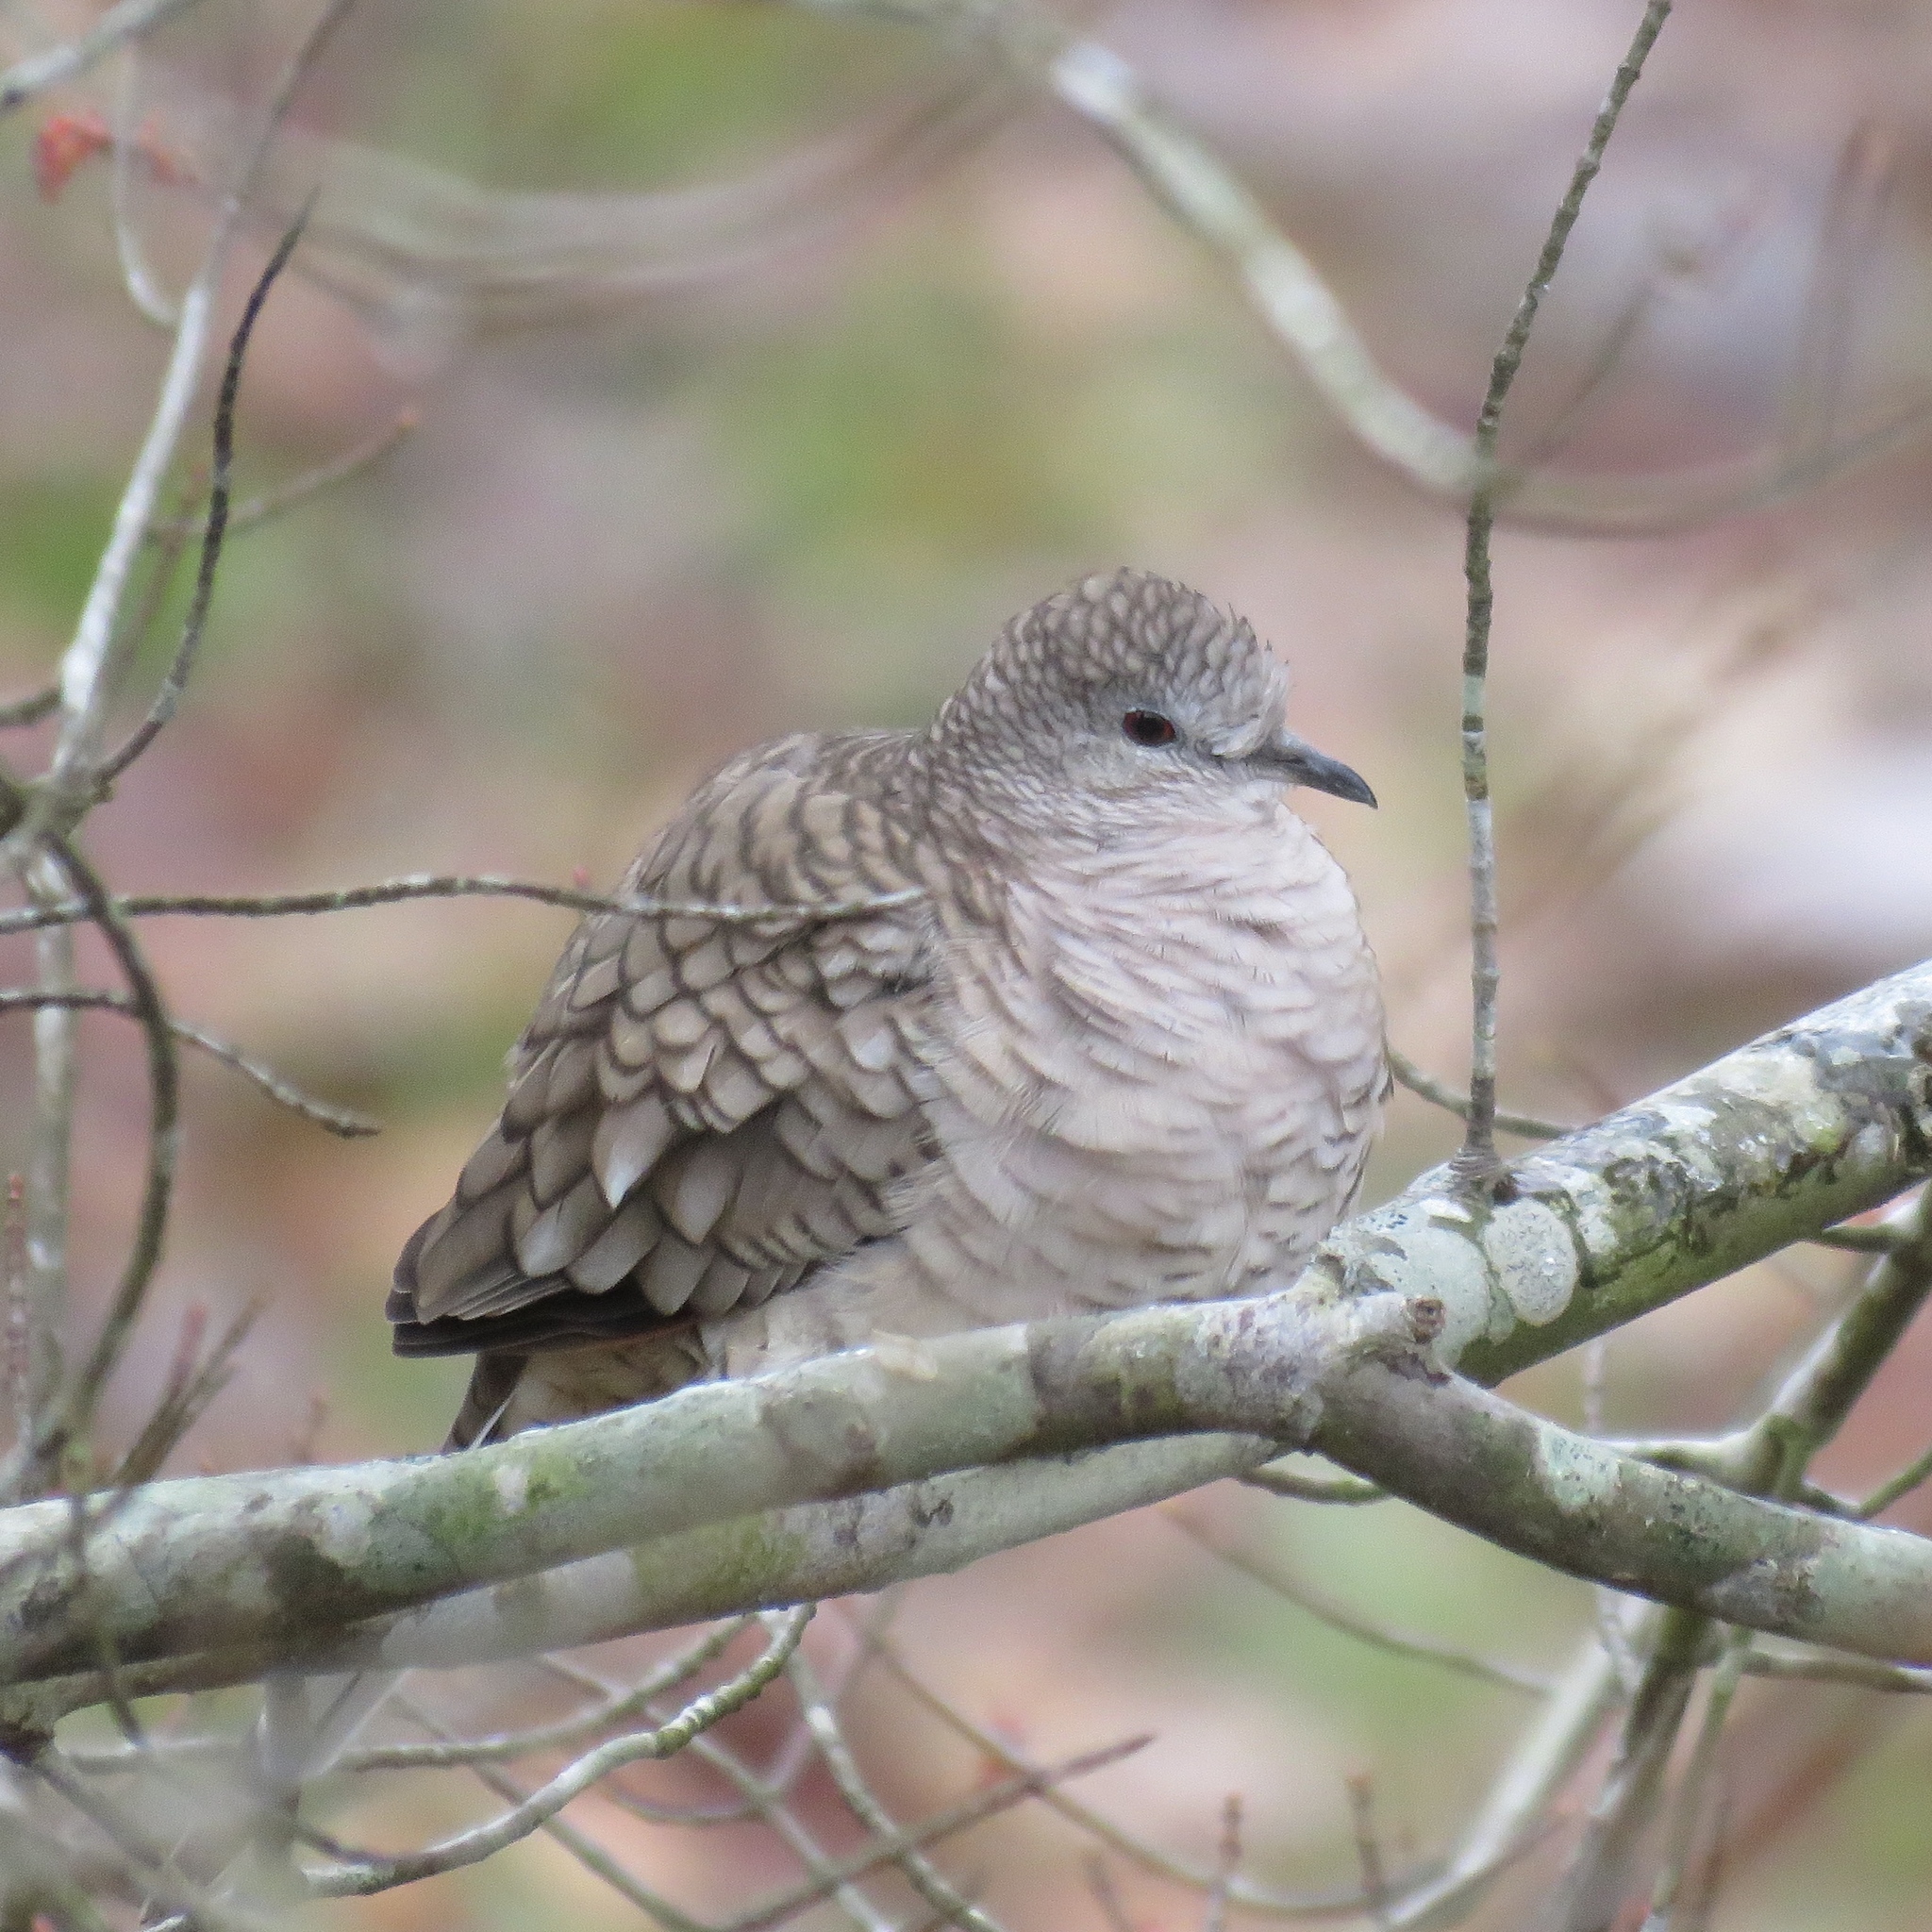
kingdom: Animalia
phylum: Chordata
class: Aves
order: Columbiformes
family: Columbidae
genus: Columbina
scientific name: Columbina inca
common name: Inca dove
